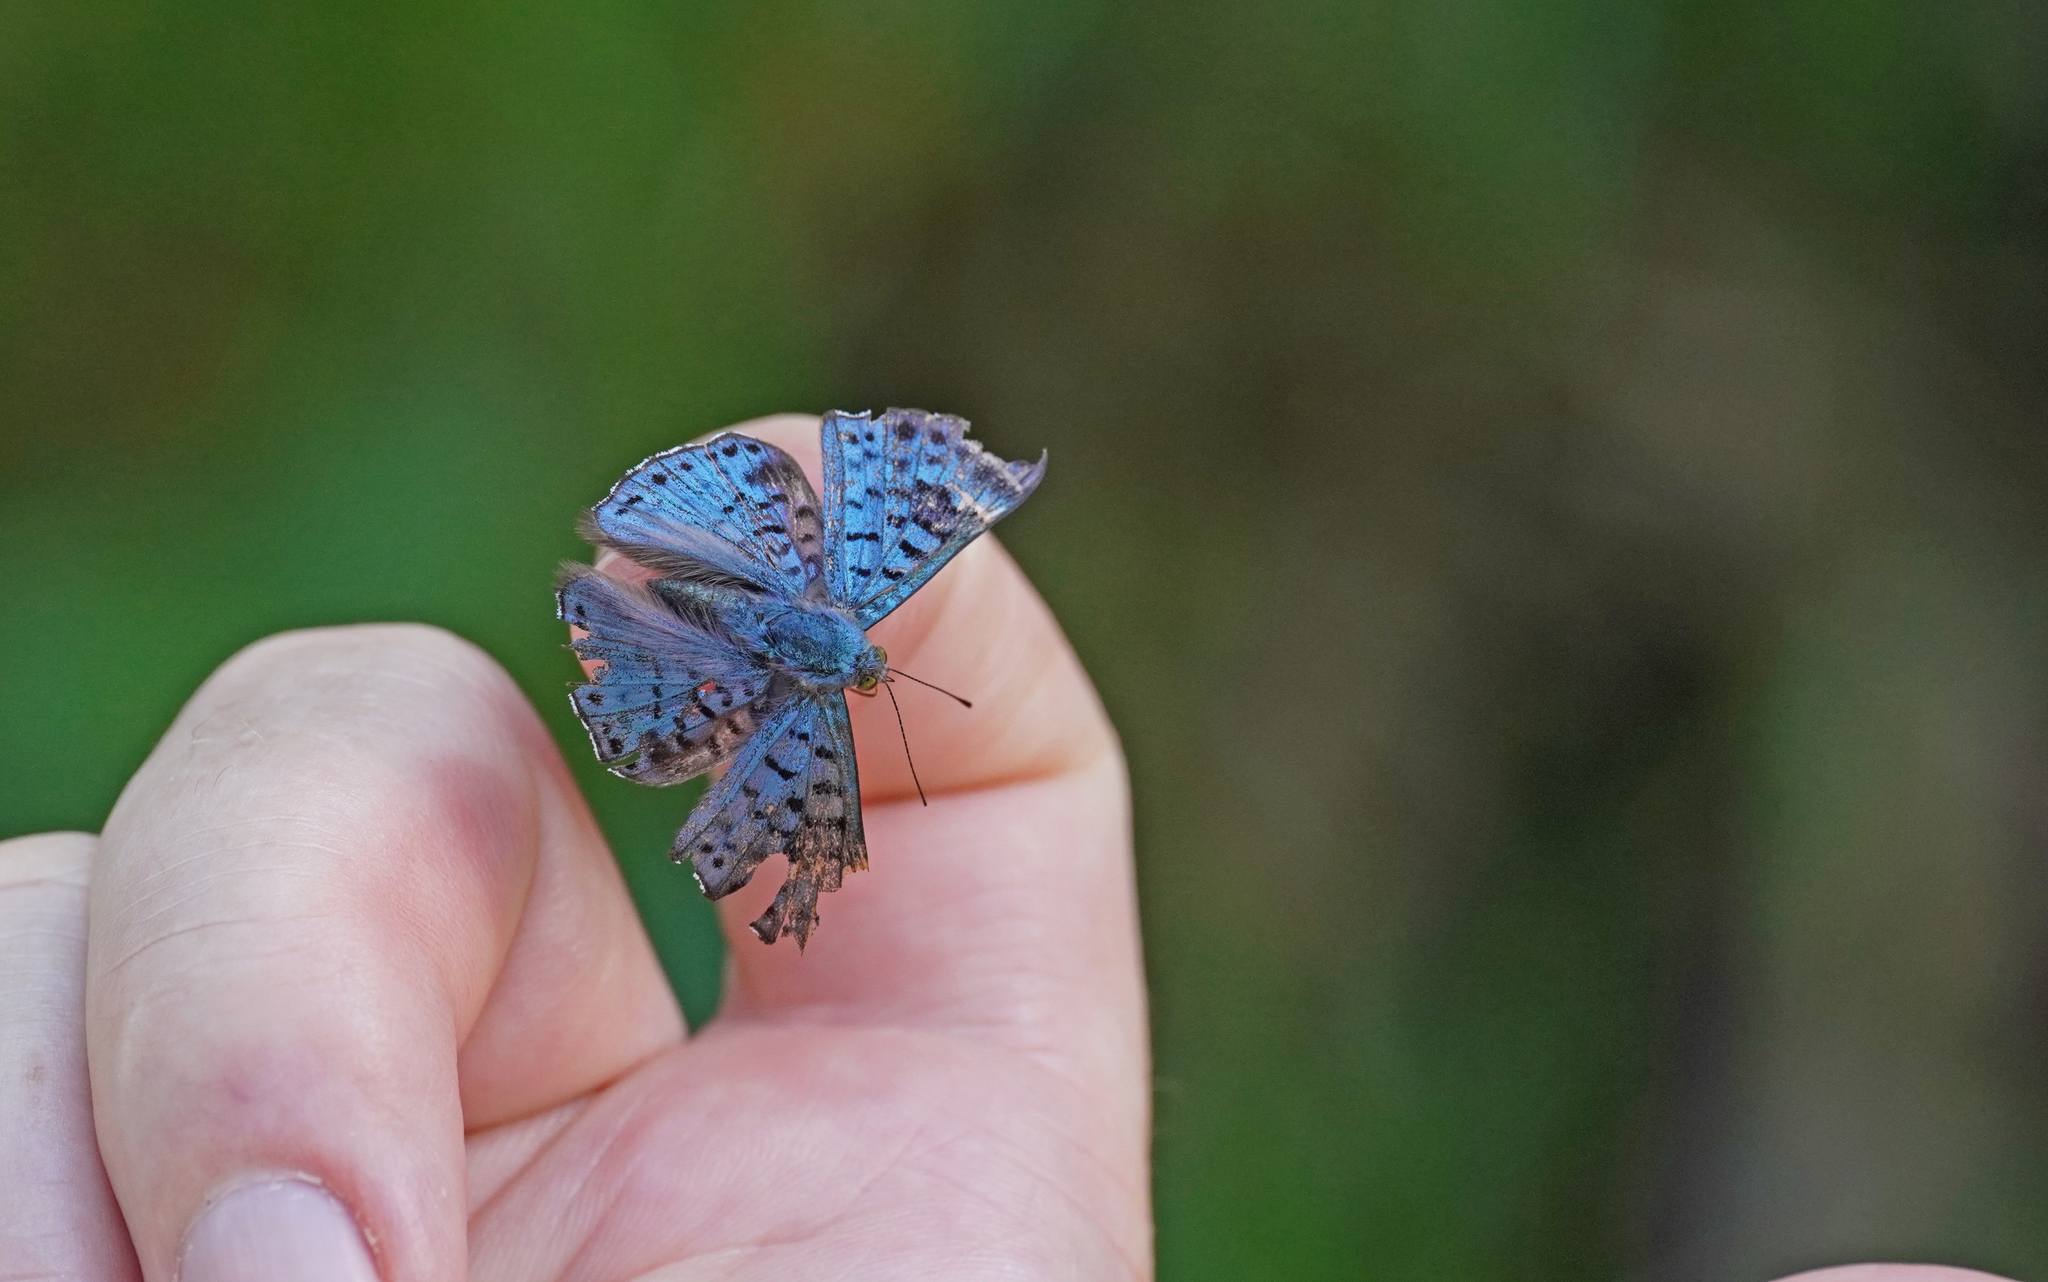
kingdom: Animalia
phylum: Arthropoda
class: Insecta
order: Lepidoptera
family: Riodinidae
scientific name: Riodinidae
